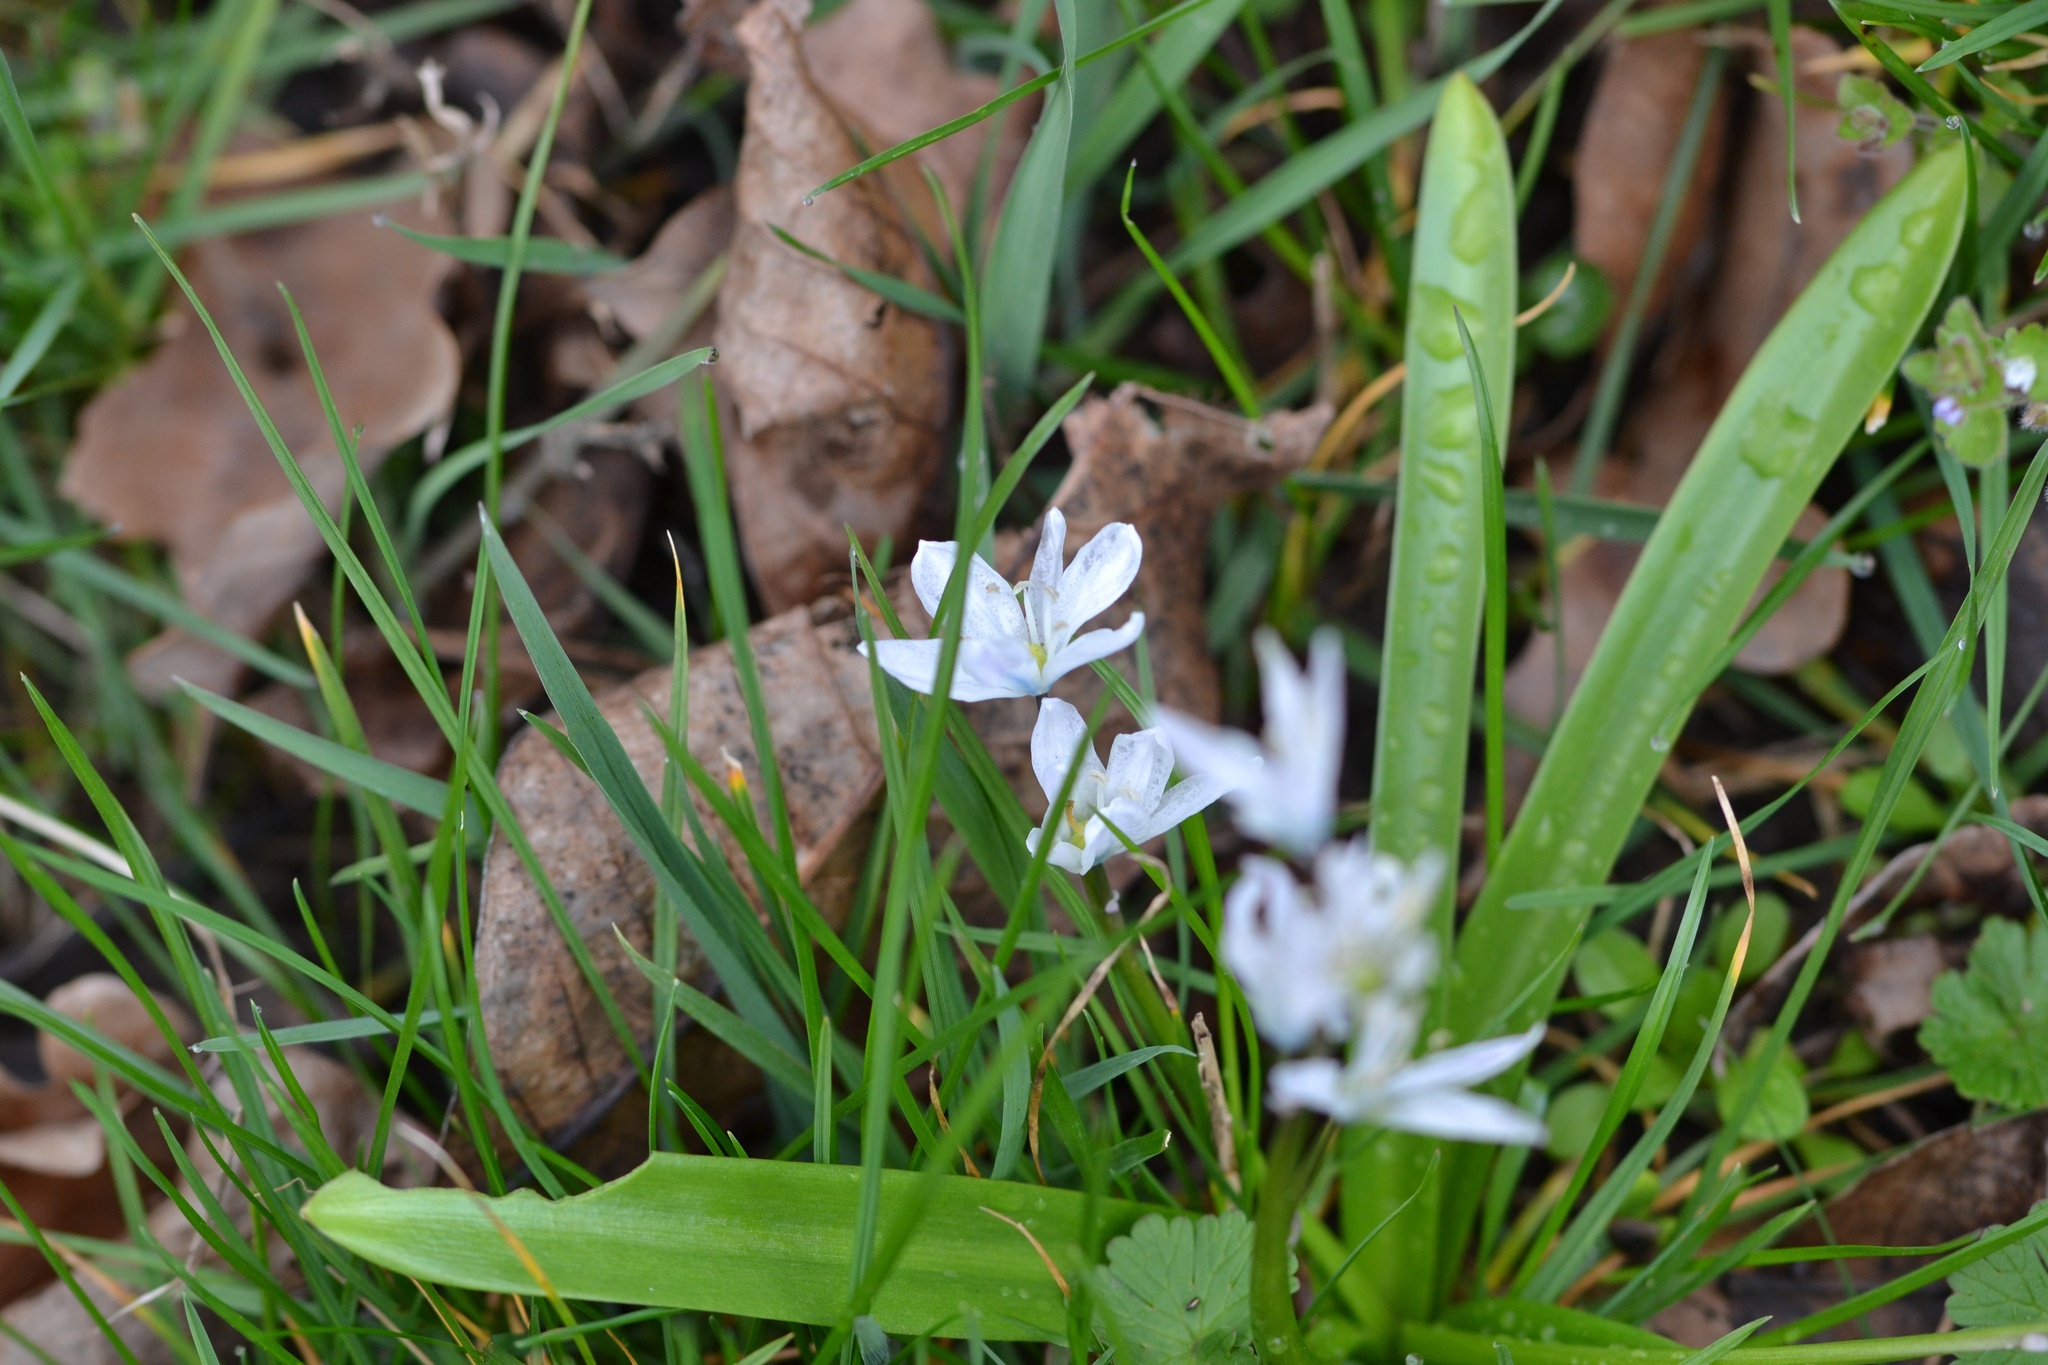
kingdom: Plantae
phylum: Tracheophyta
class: Liliopsida
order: Asparagales
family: Asparagaceae
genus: Scilla
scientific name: Scilla mischtschenkoana
